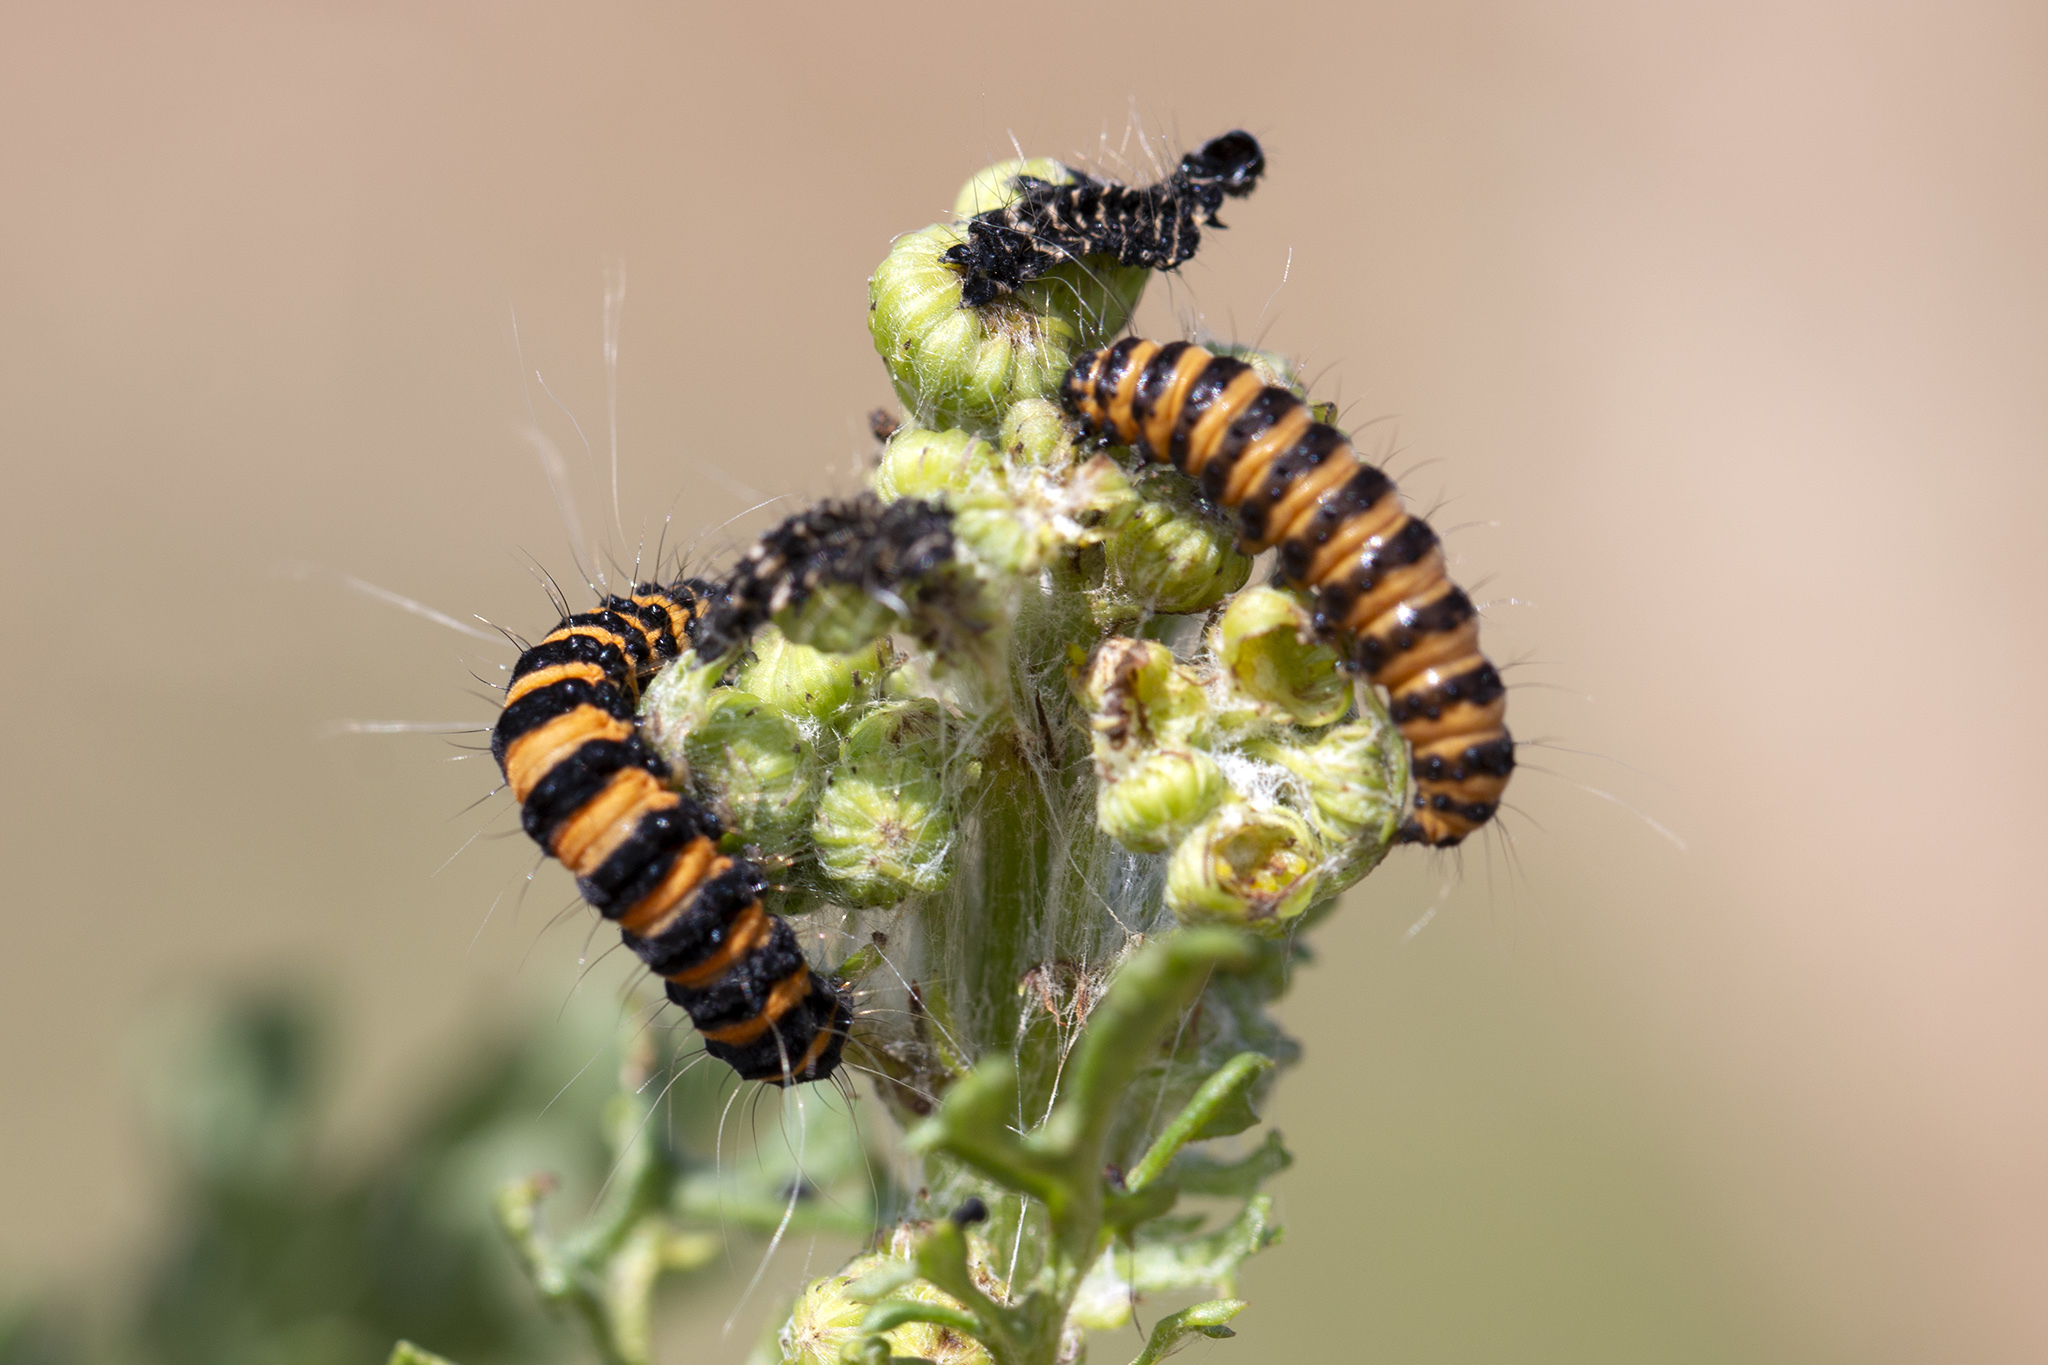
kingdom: Animalia
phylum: Arthropoda
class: Insecta
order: Lepidoptera
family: Erebidae
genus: Tyria
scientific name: Tyria jacobaeae
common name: Cinnabar
